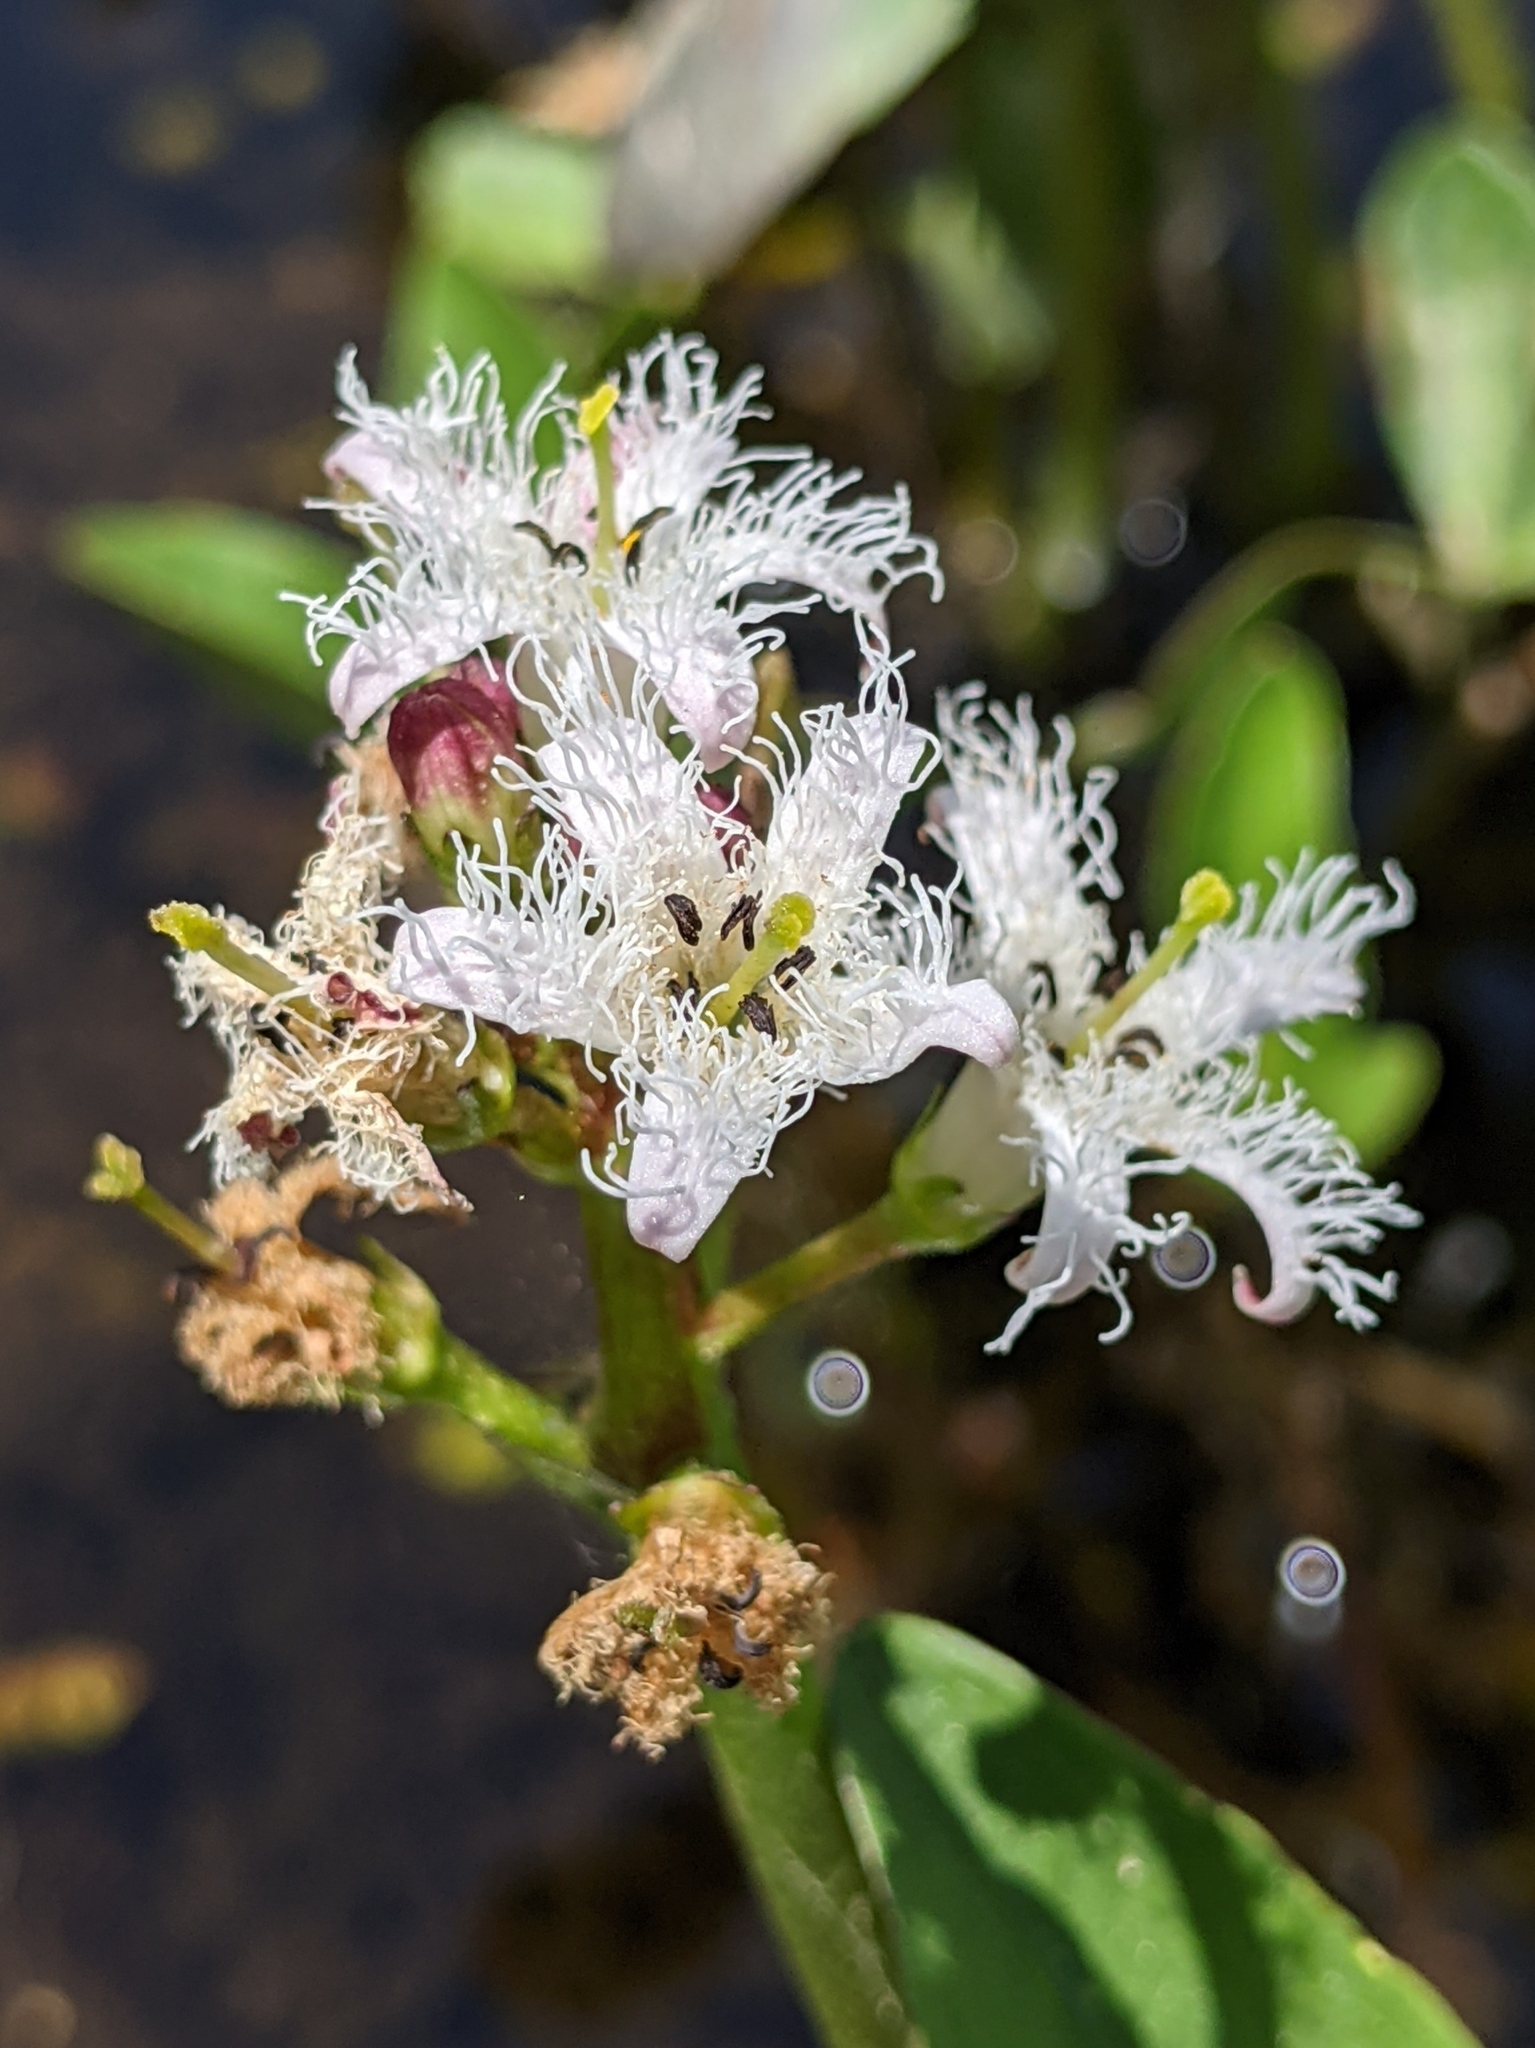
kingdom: Plantae
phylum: Tracheophyta
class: Magnoliopsida
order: Asterales
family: Menyanthaceae
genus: Menyanthes
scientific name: Menyanthes trifoliata
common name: Bogbean
